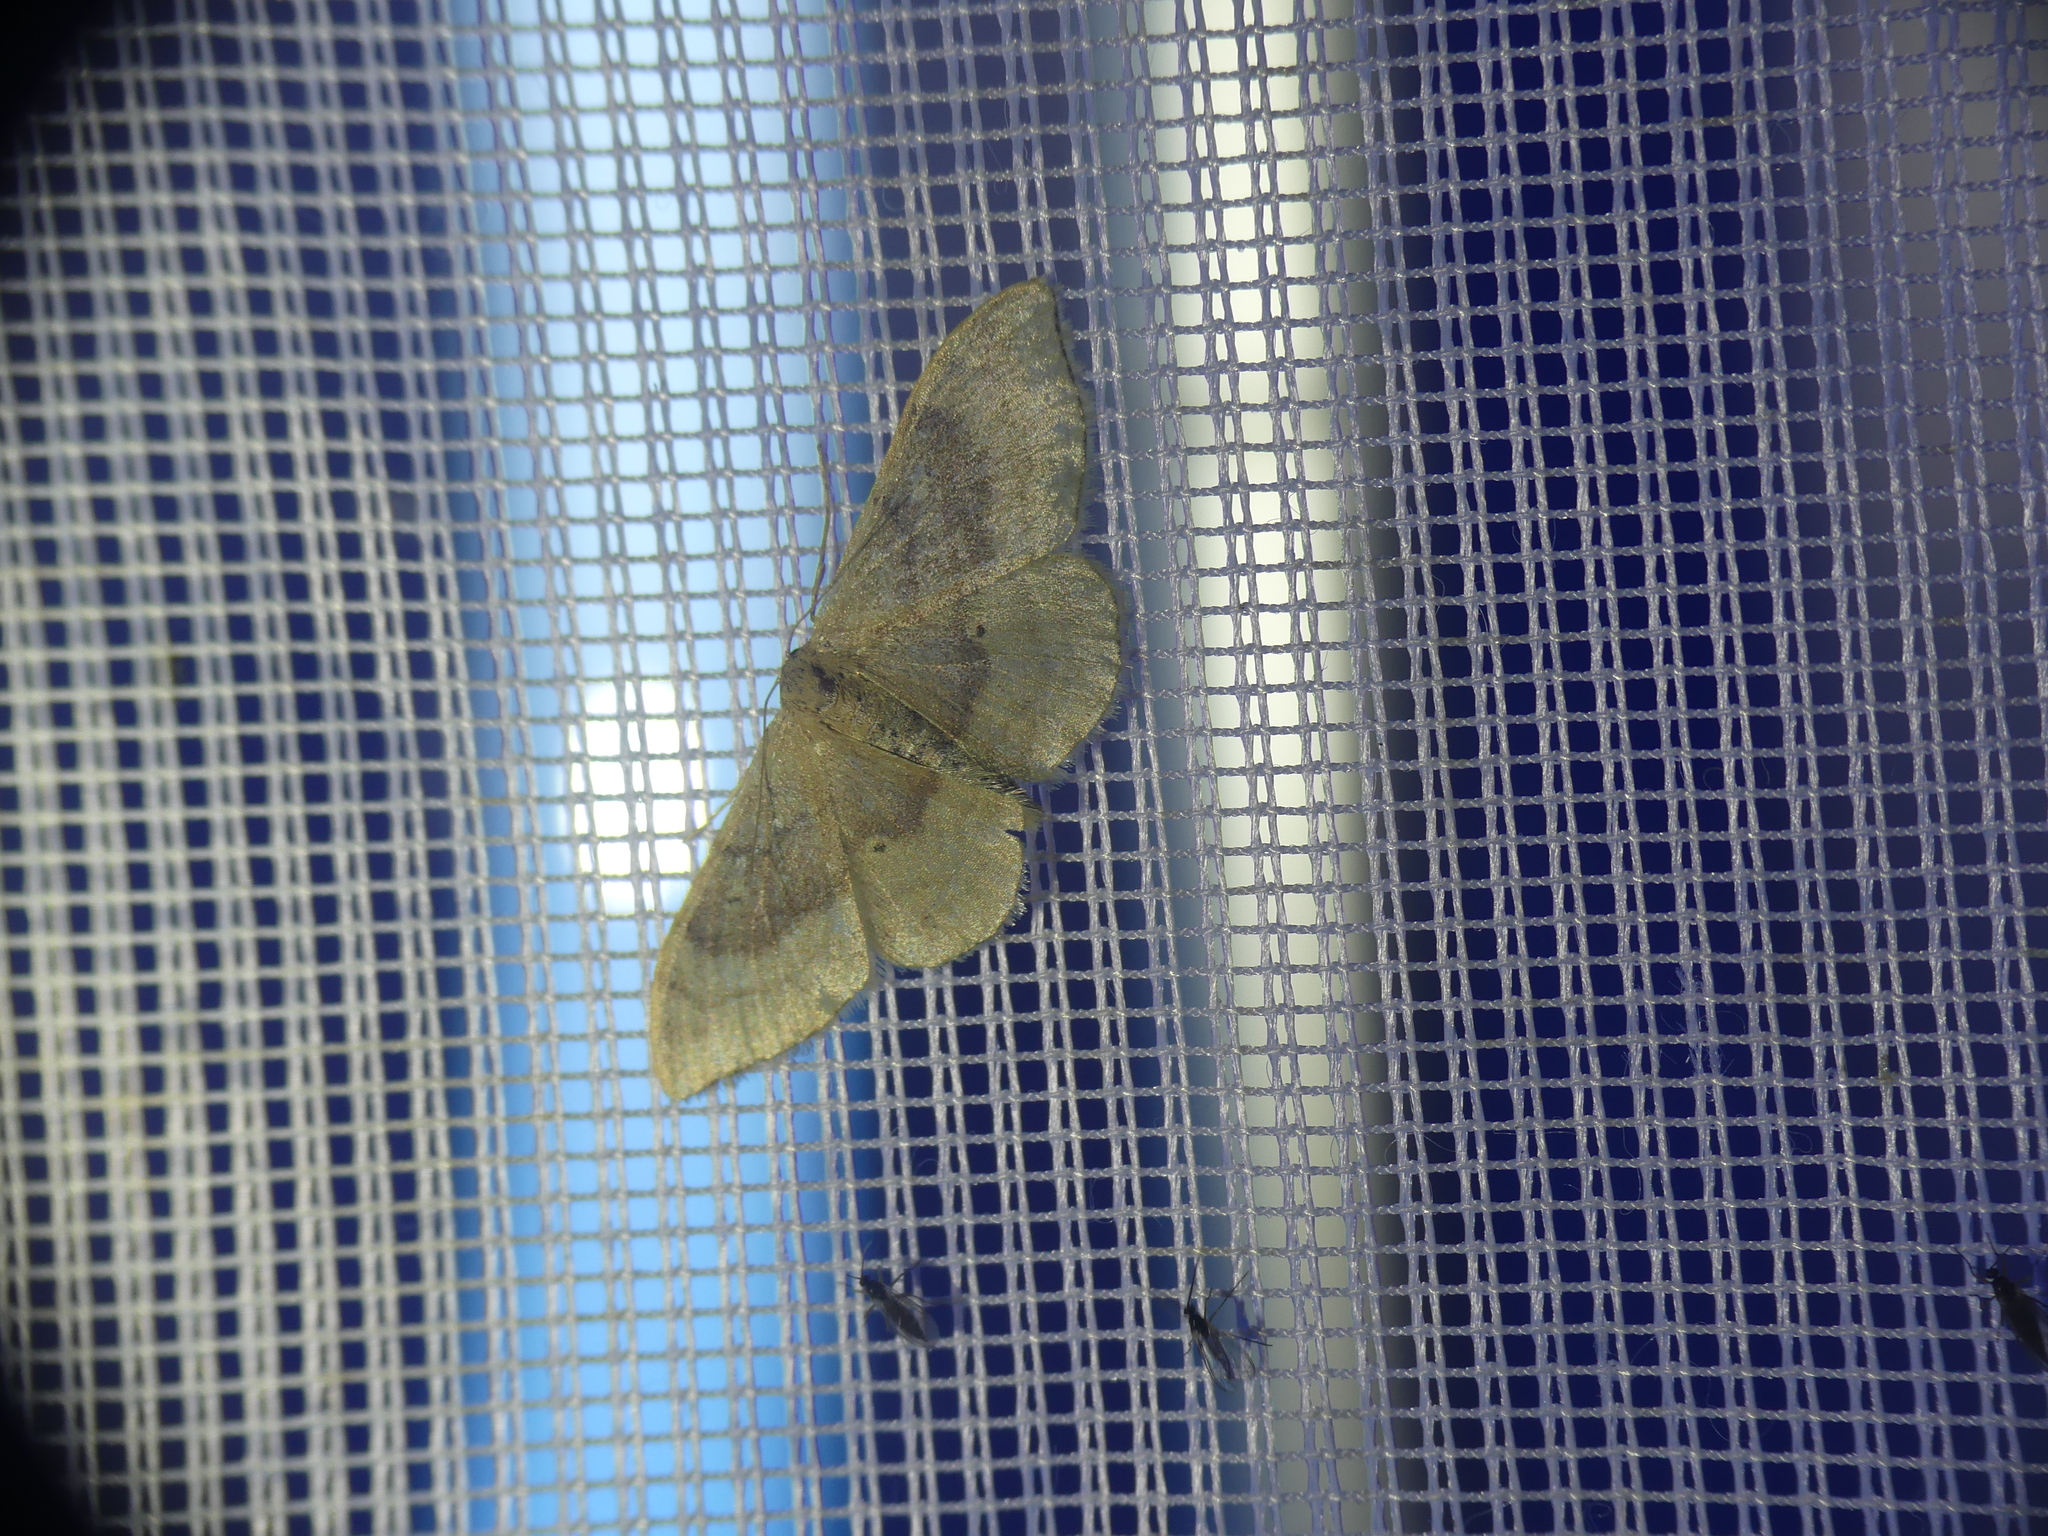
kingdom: Animalia
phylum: Arthropoda
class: Insecta
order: Lepidoptera
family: Geometridae
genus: Idaea
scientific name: Idaea degeneraria
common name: Portland ribbon wave
